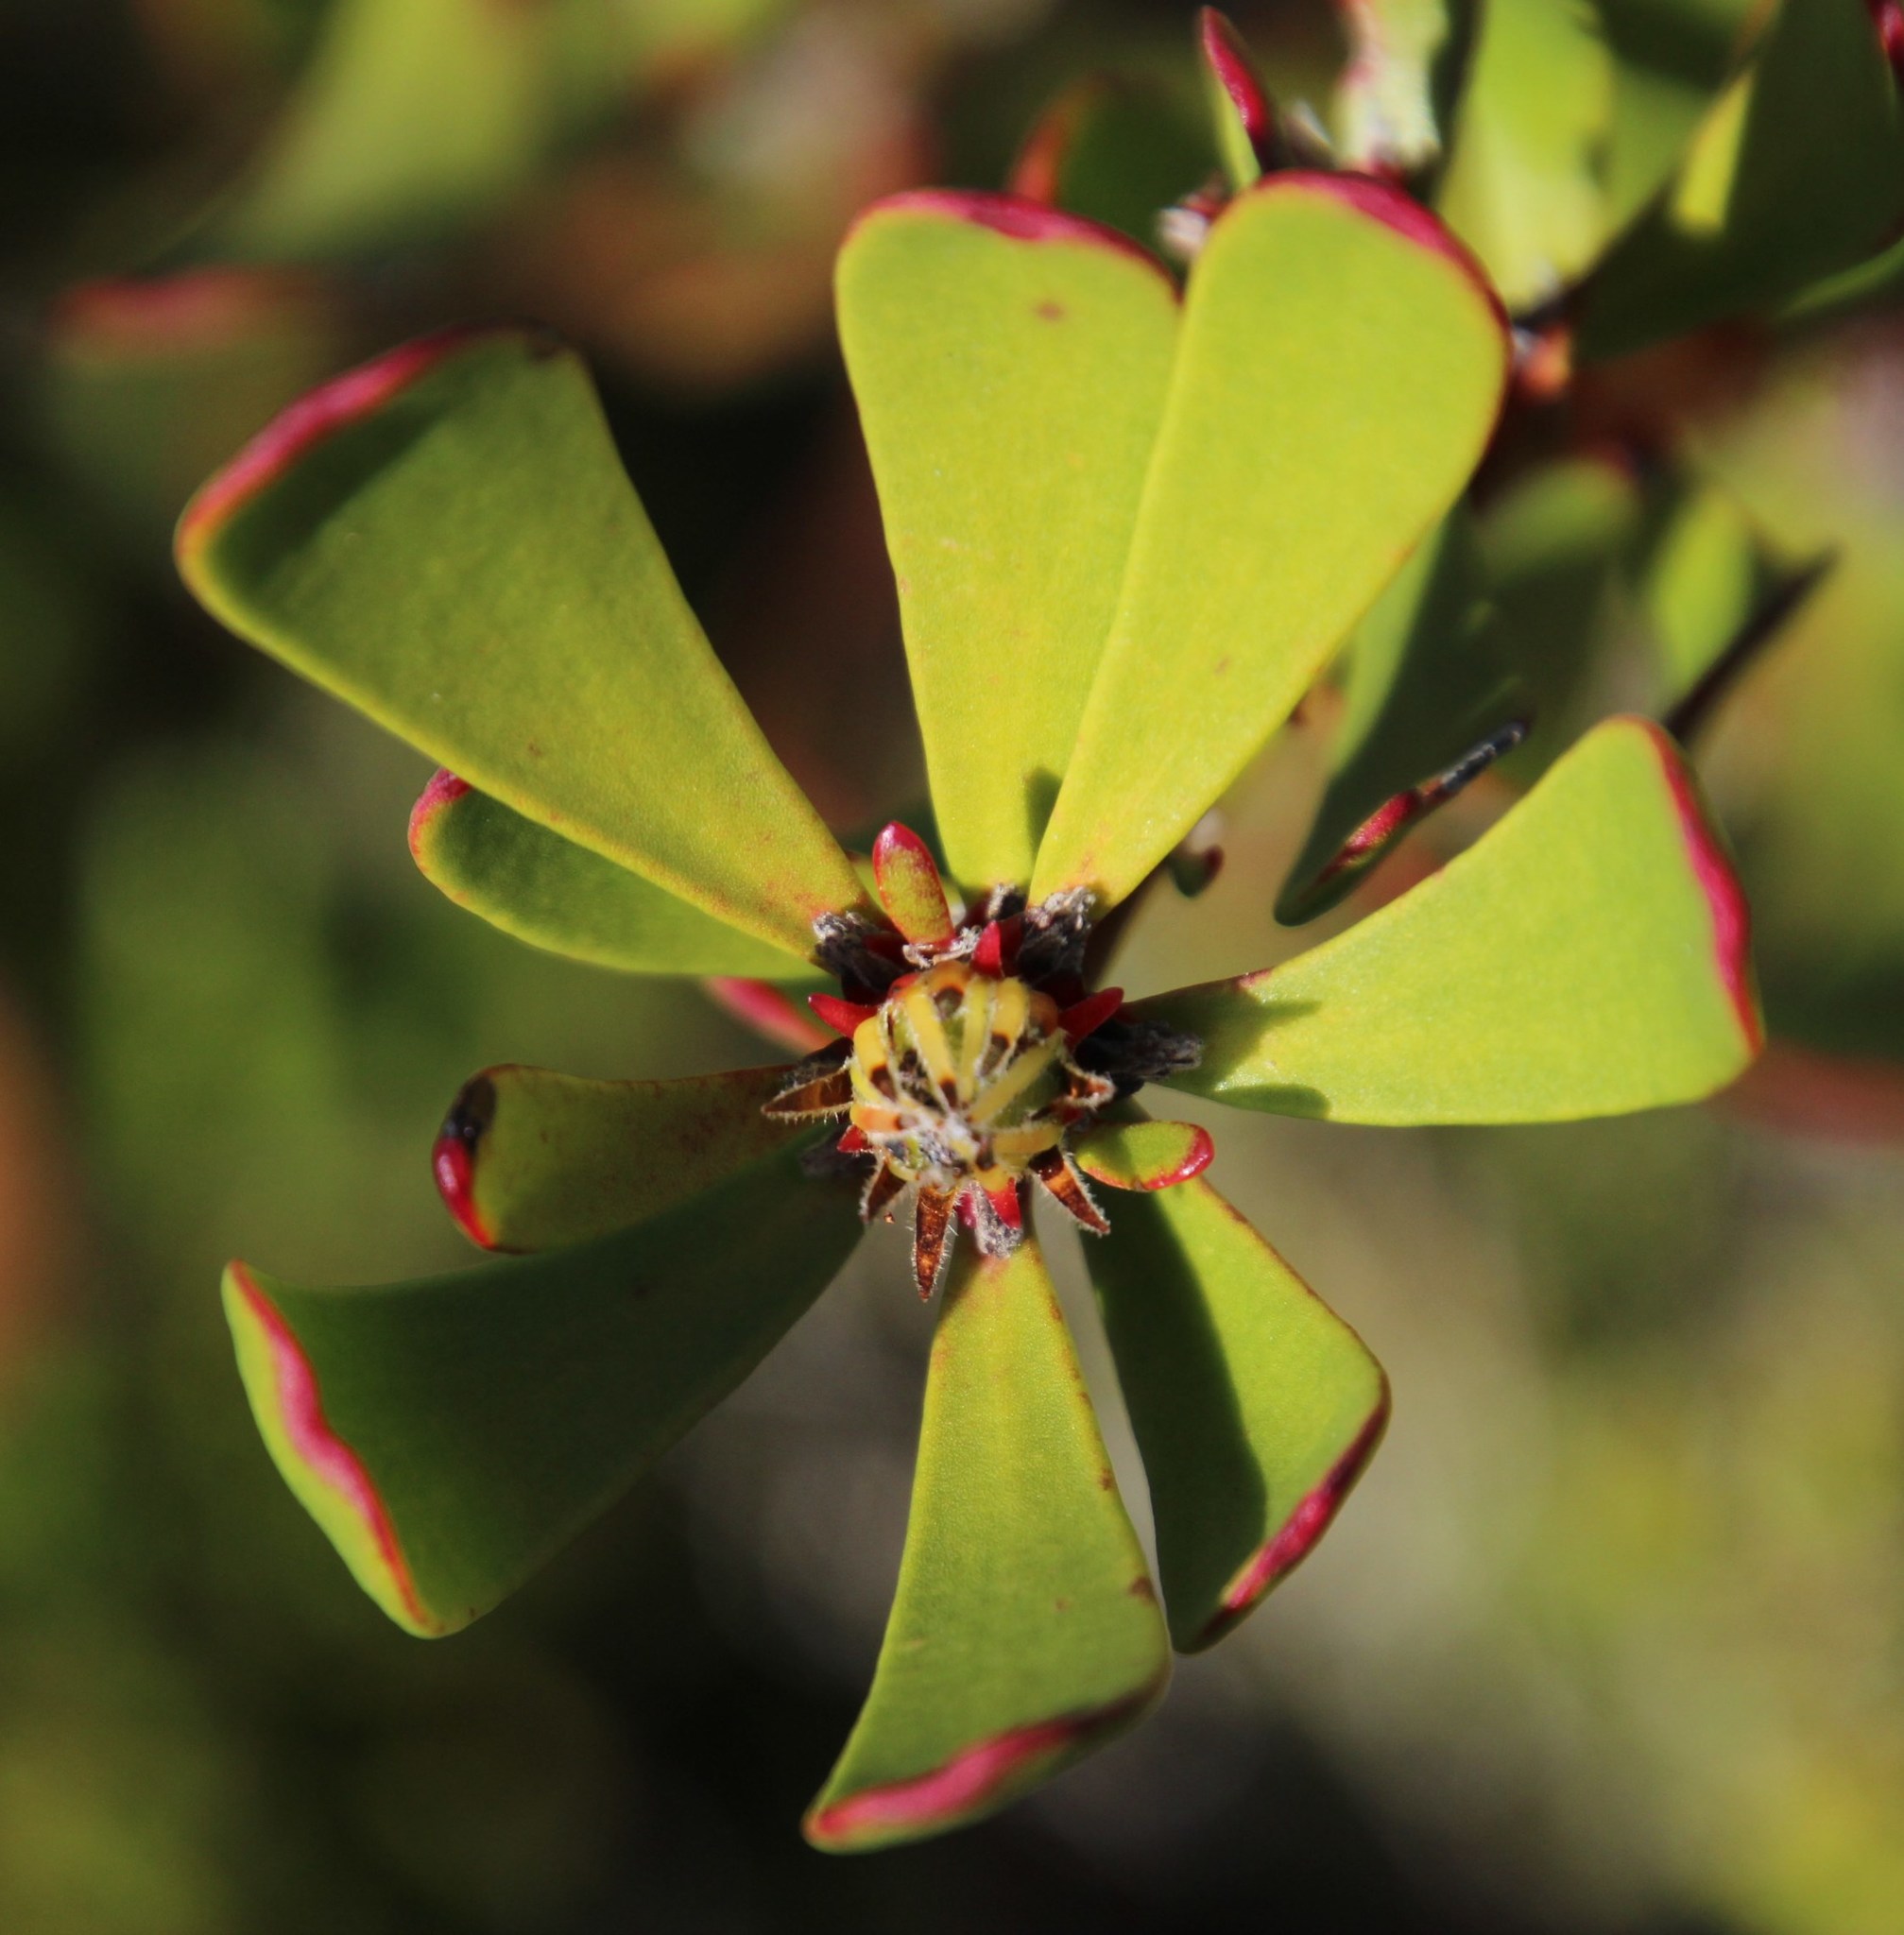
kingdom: Plantae
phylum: Tracheophyta
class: Magnoliopsida
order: Proteales
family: Proteaceae
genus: Leucadendron
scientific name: Leucadendron muirii
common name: Silver-ball conebush
